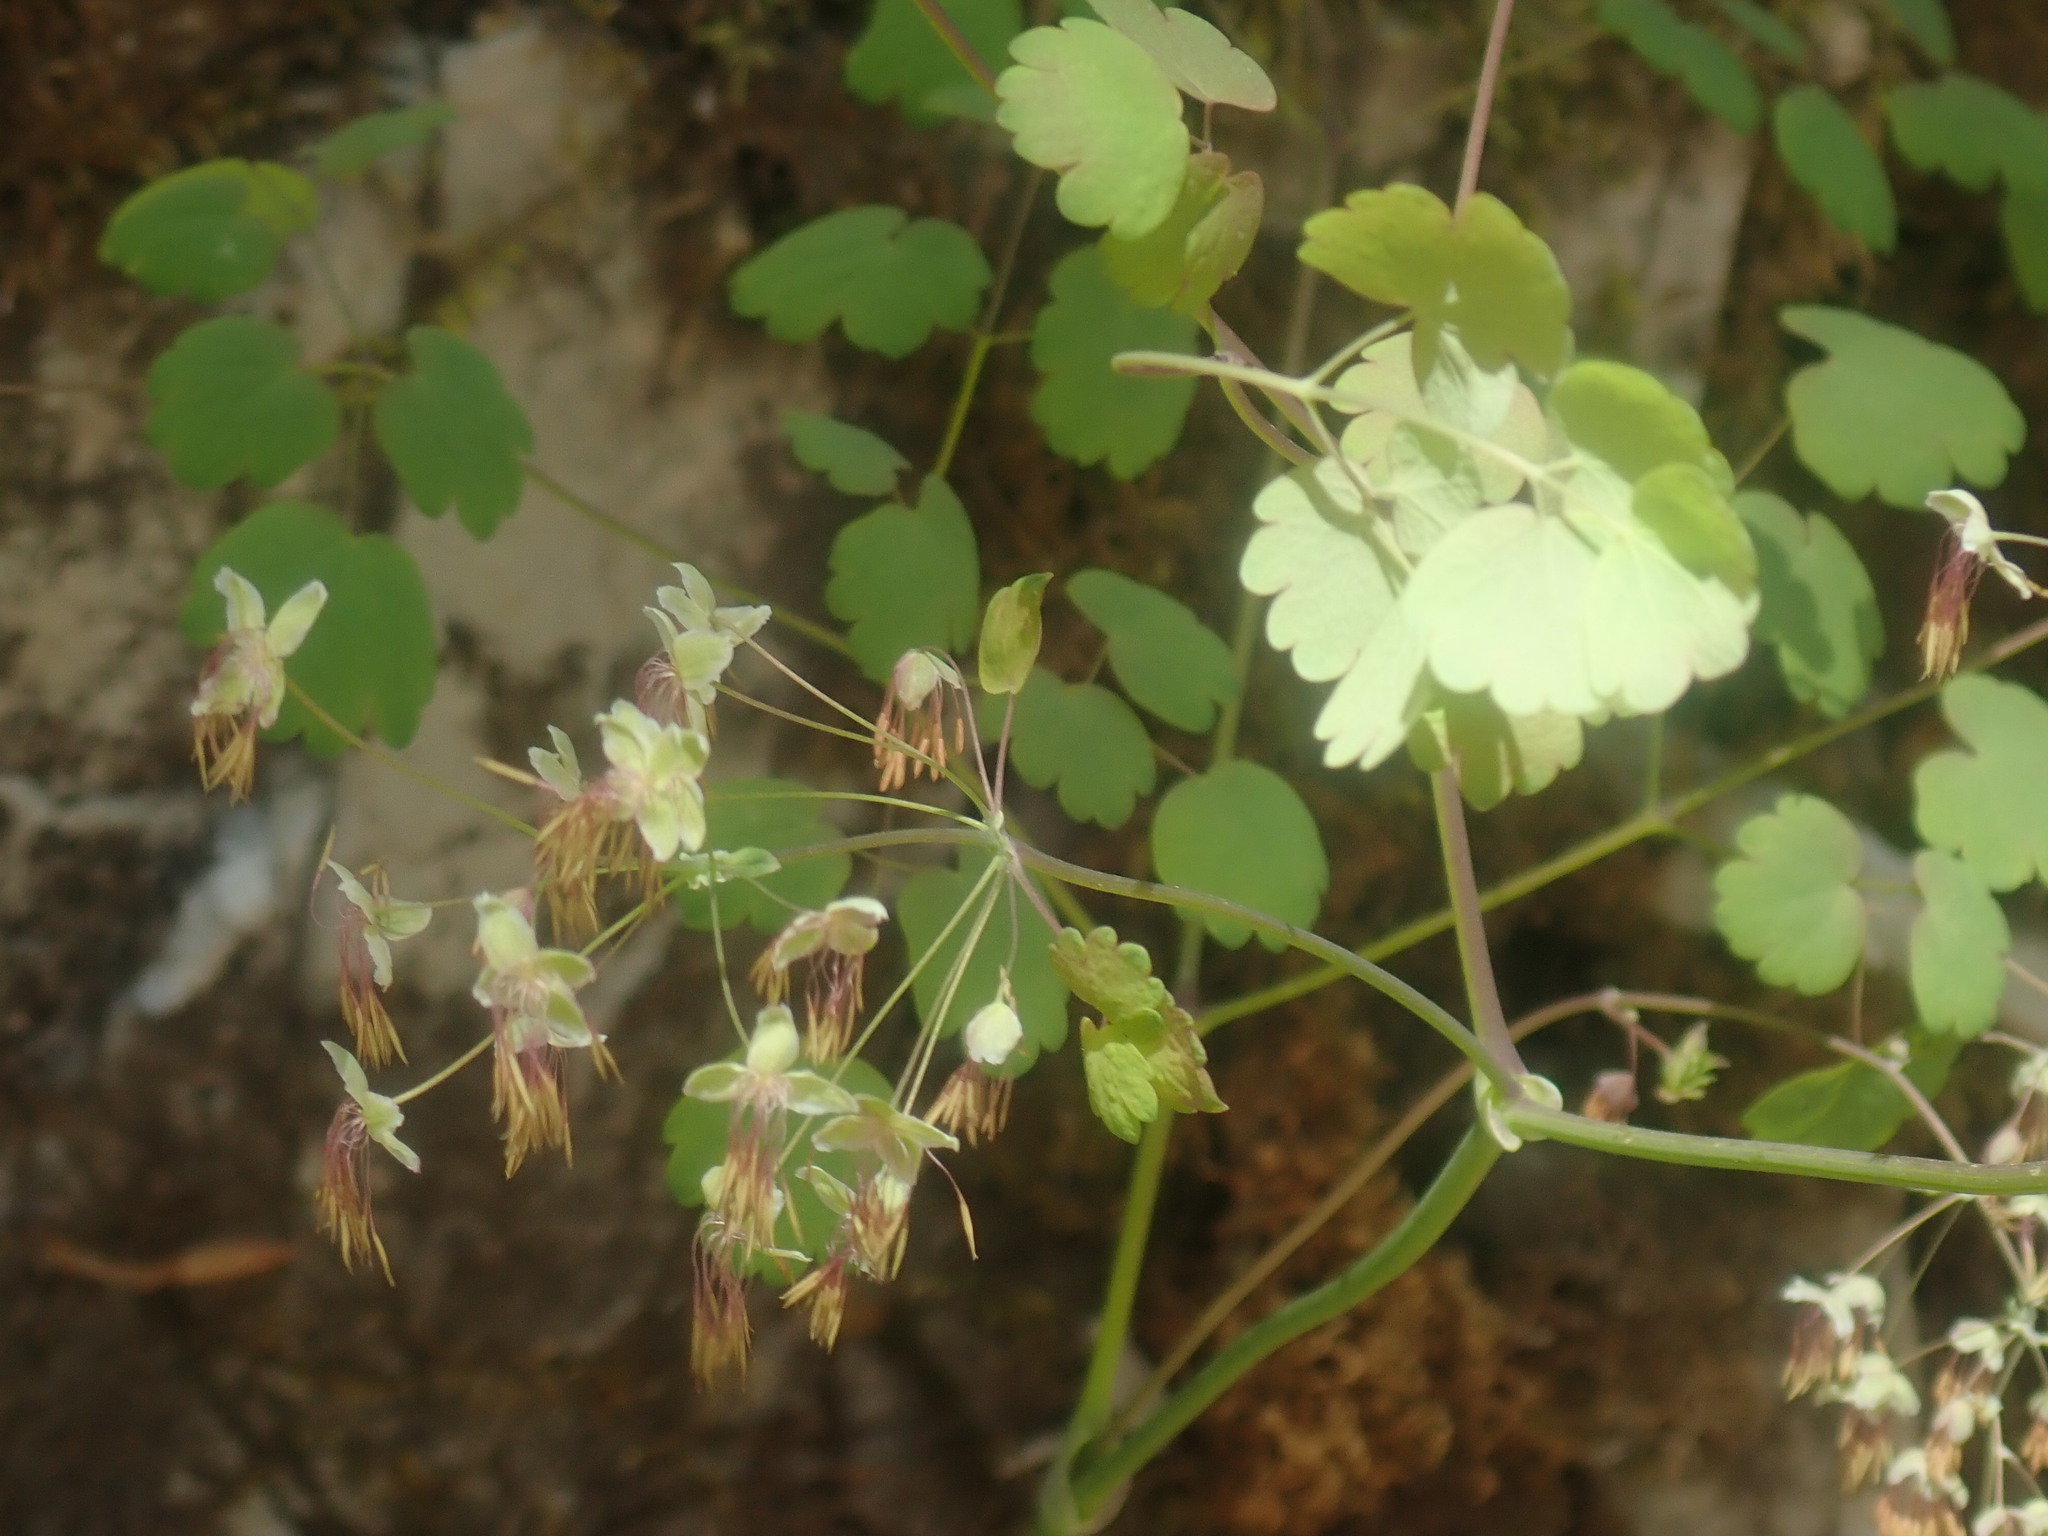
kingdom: Plantae
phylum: Tracheophyta
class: Magnoliopsida
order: Ranunculales
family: Ranunculaceae
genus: Thalictrum
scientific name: Thalictrum dioicum
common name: Early meadow-rue
